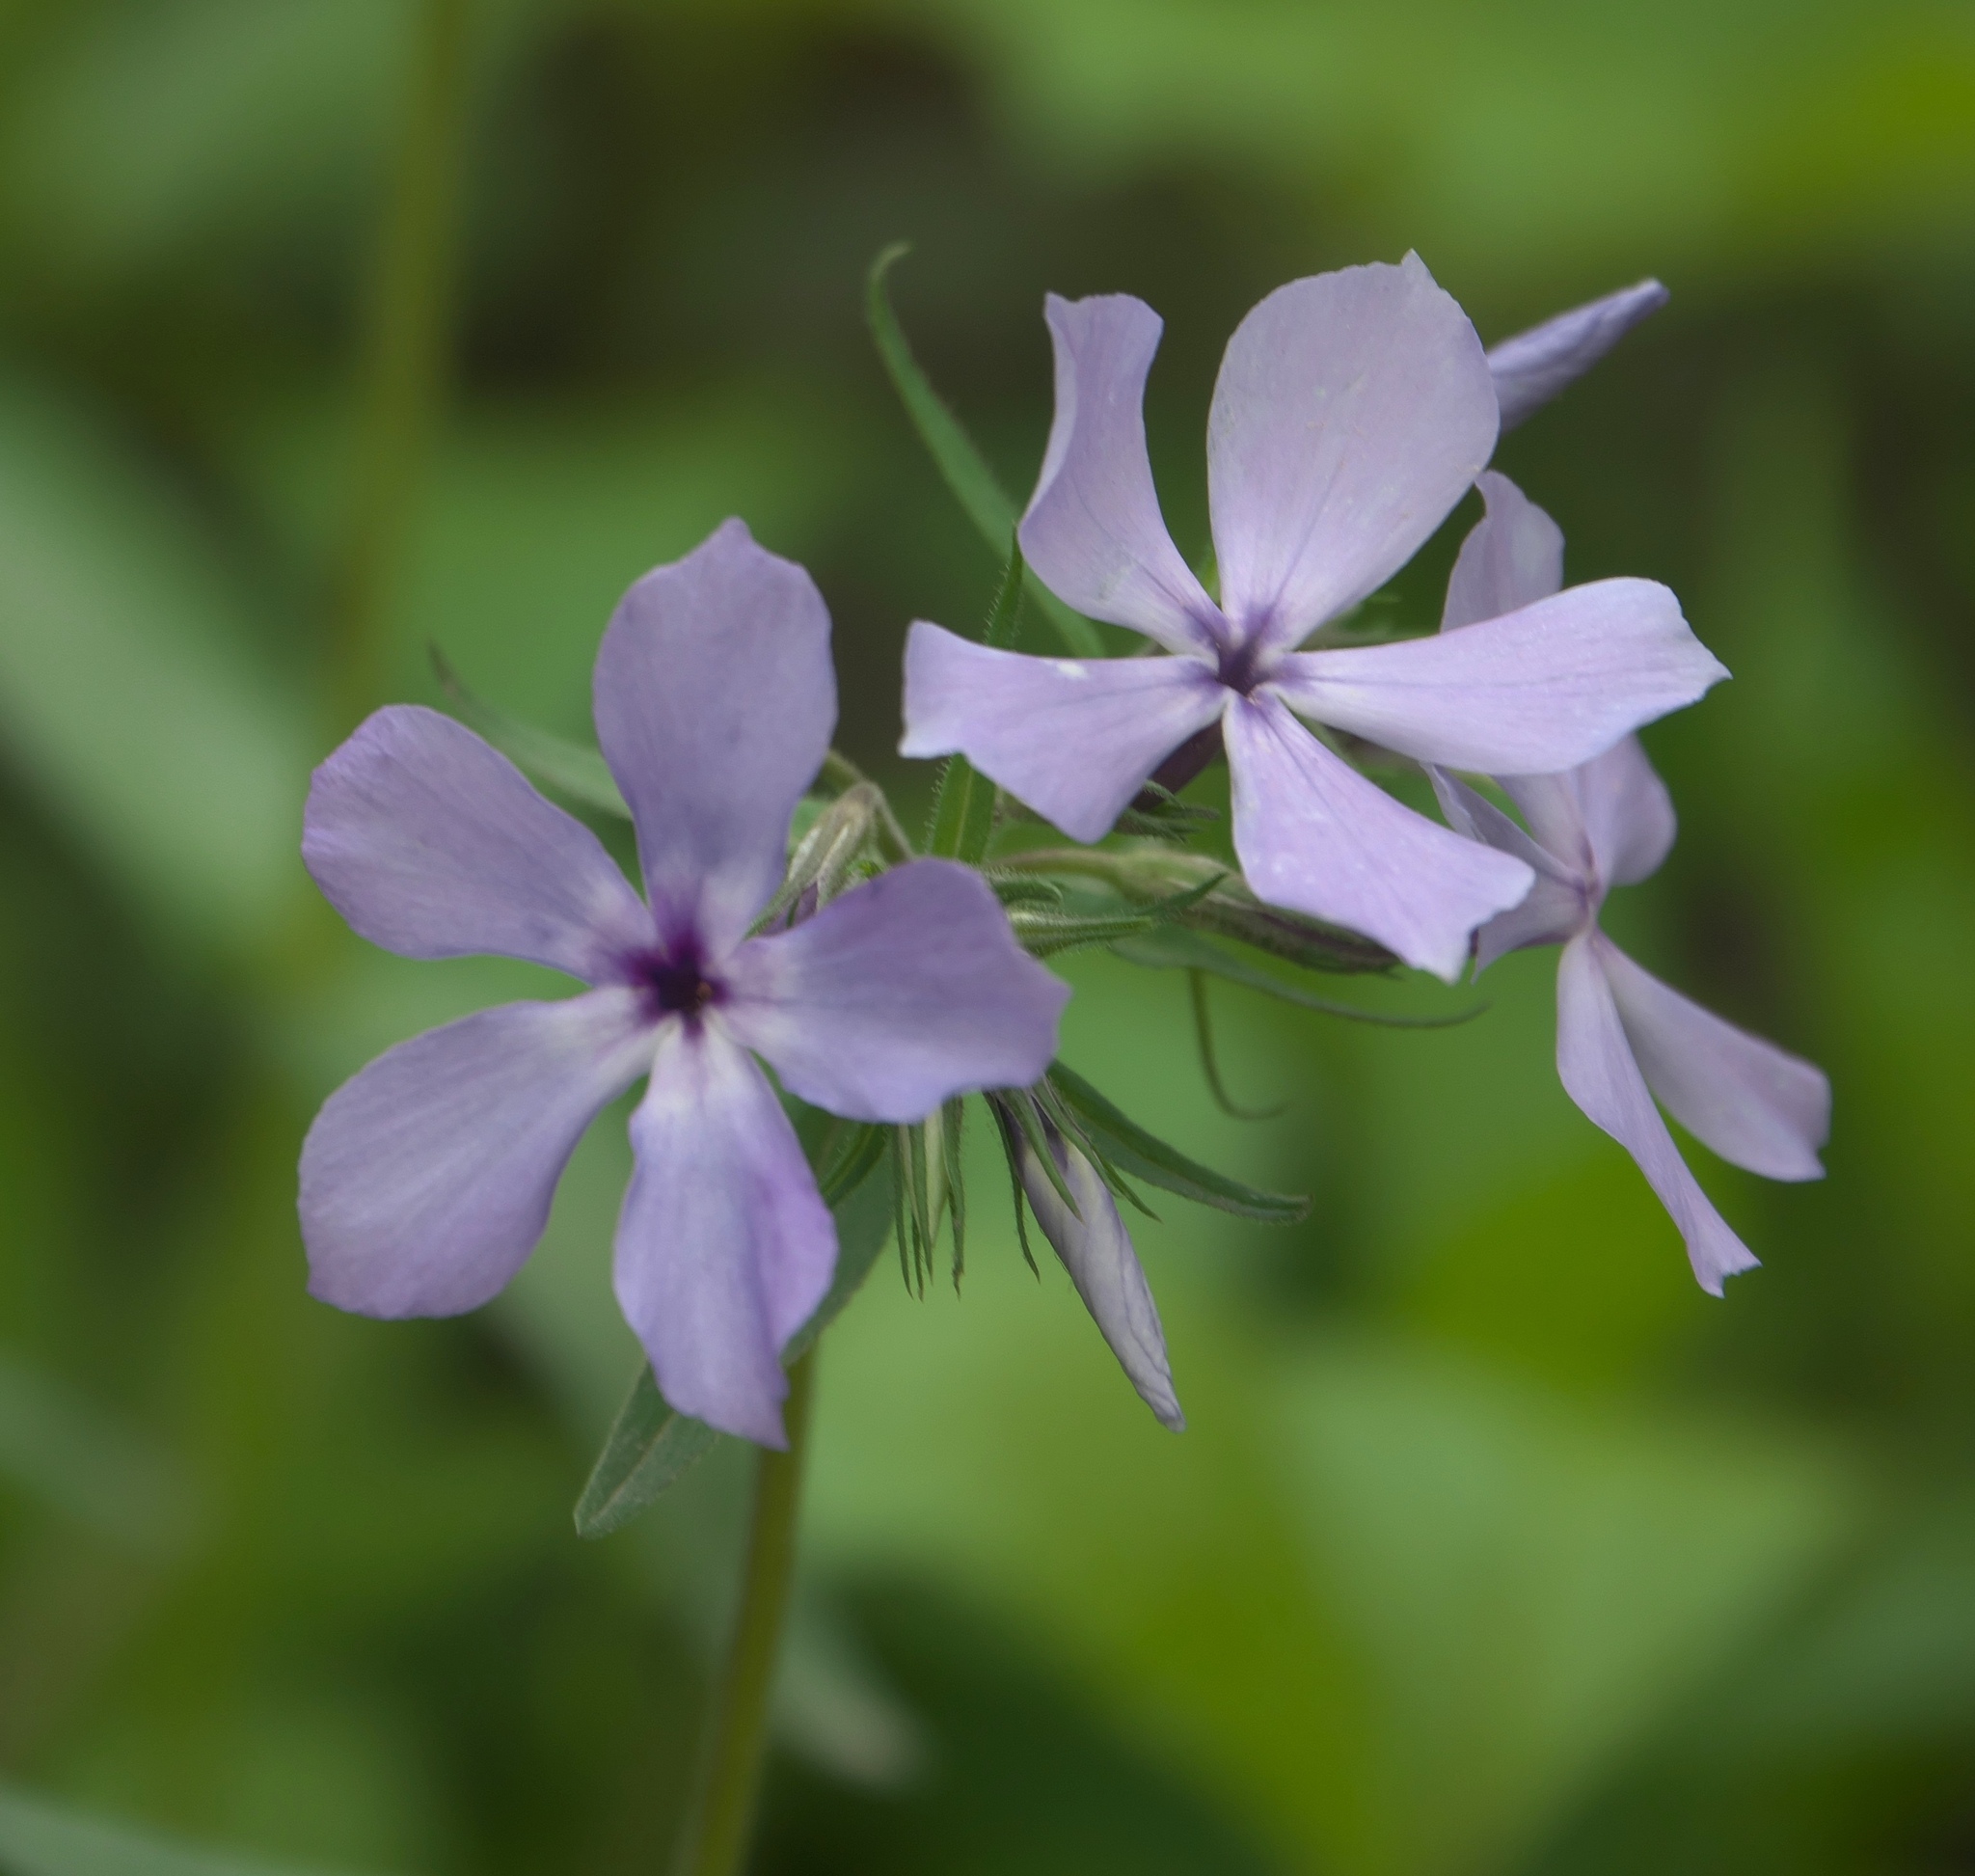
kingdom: Plantae
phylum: Tracheophyta
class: Magnoliopsida
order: Ericales
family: Polemoniaceae
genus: Phlox
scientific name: Phlox divaricata
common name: Blue phlox
